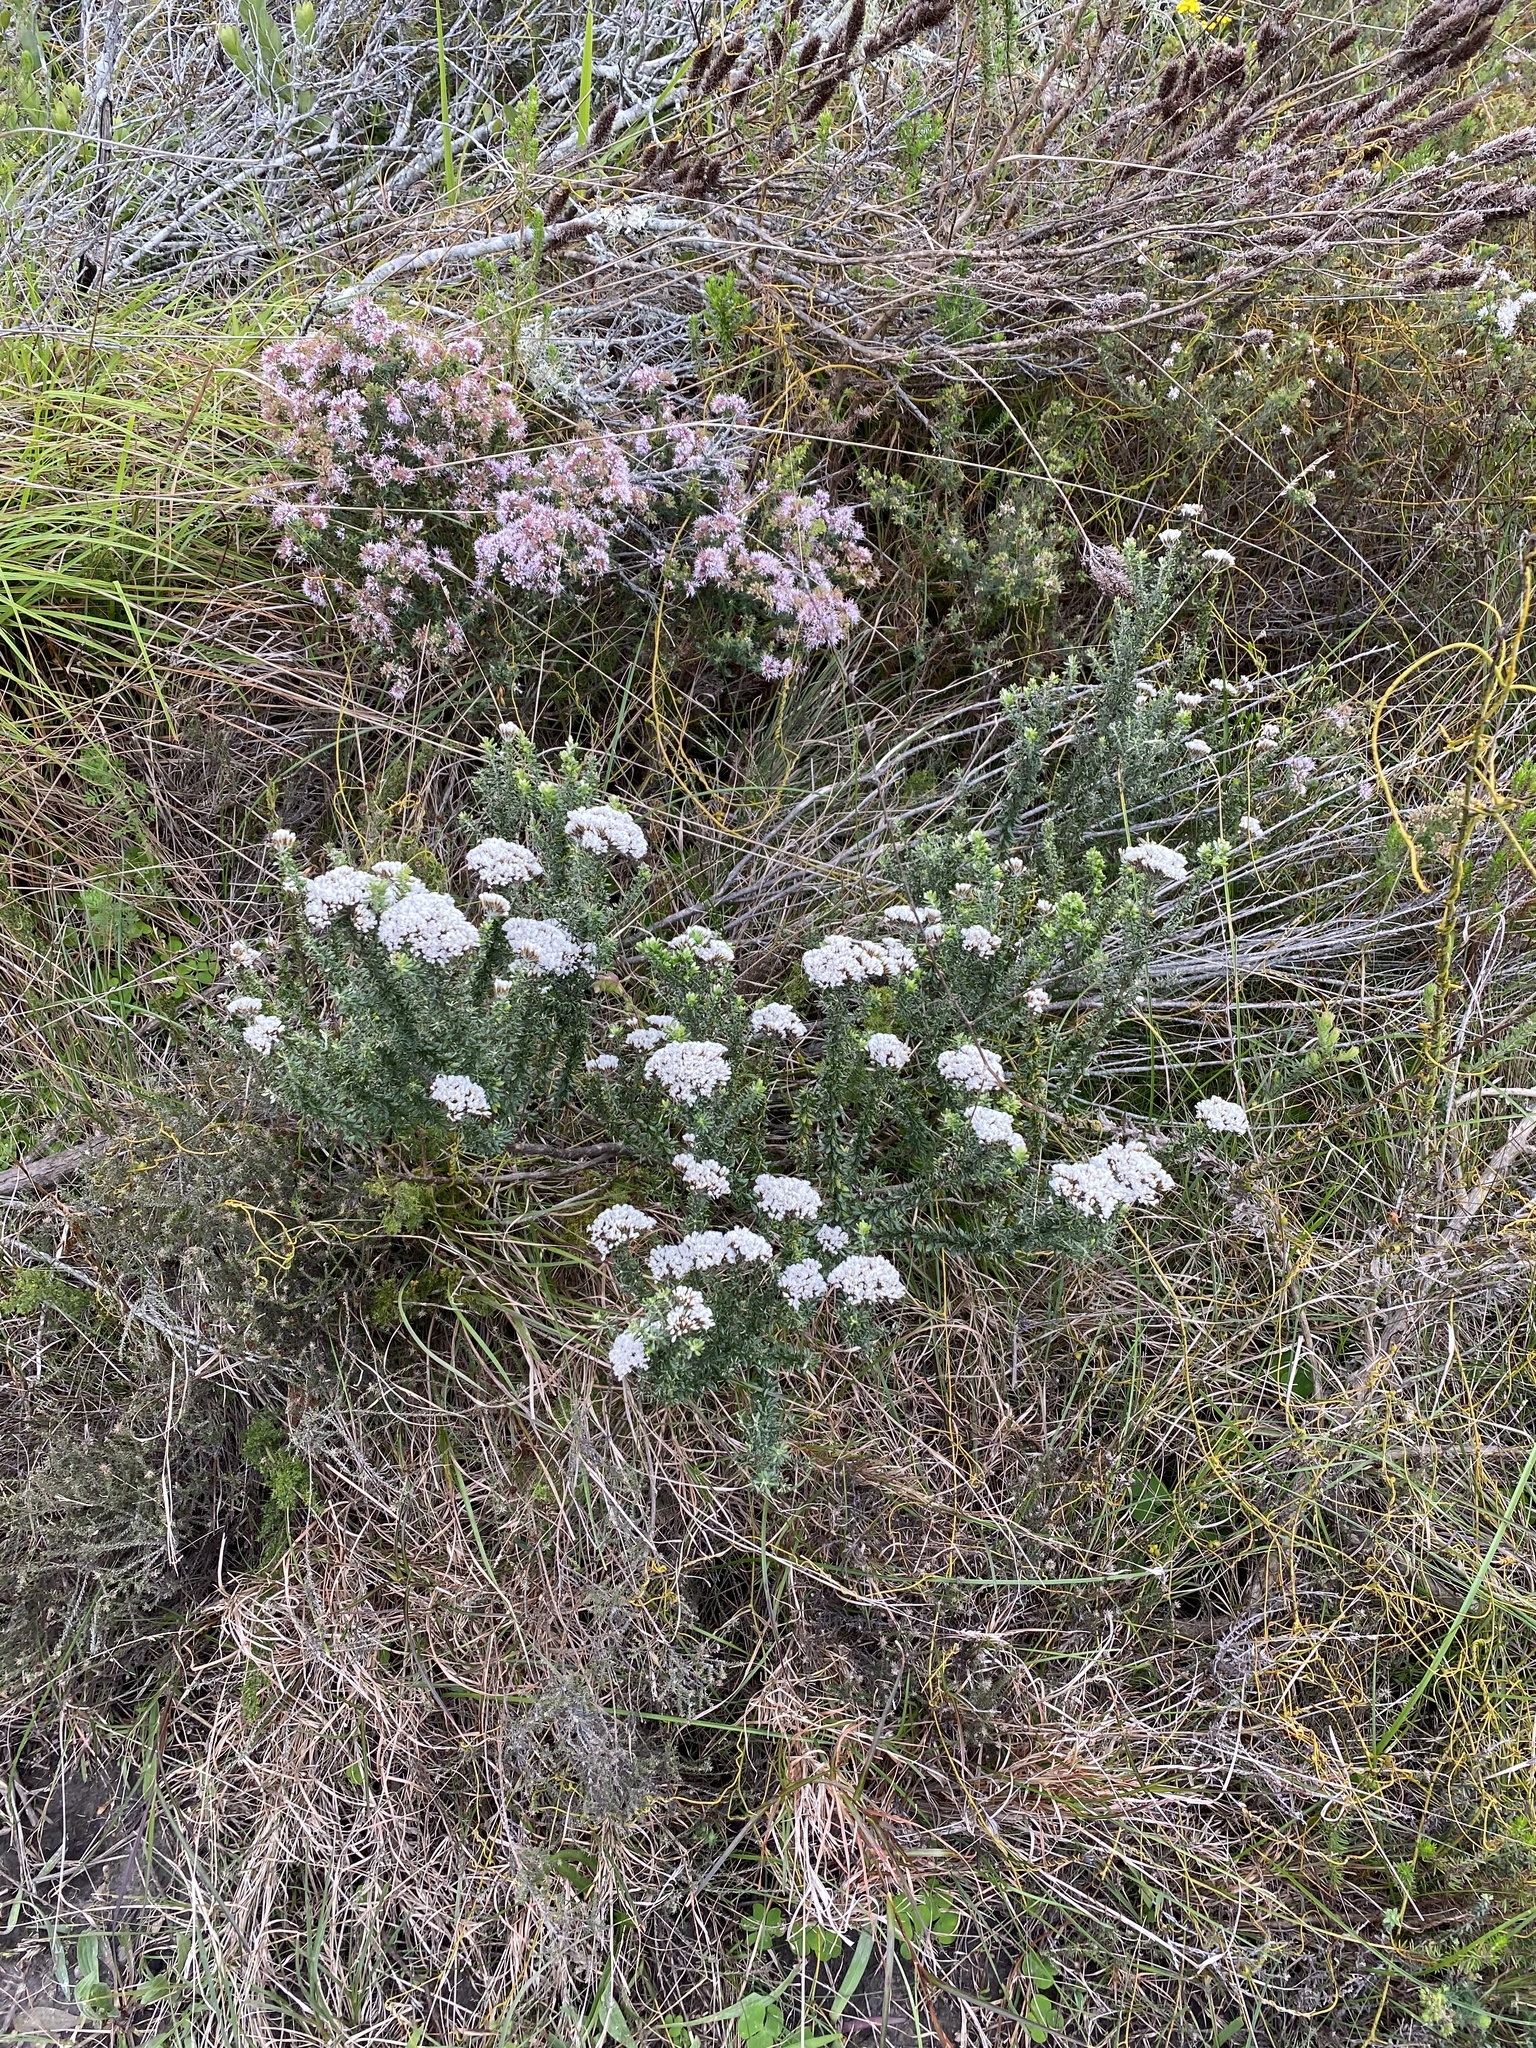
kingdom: Plantae
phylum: Tracheophyta
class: Magnoliopsida
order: Asterales
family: Asteraceae
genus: Metalasia
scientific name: Metalasia densa
